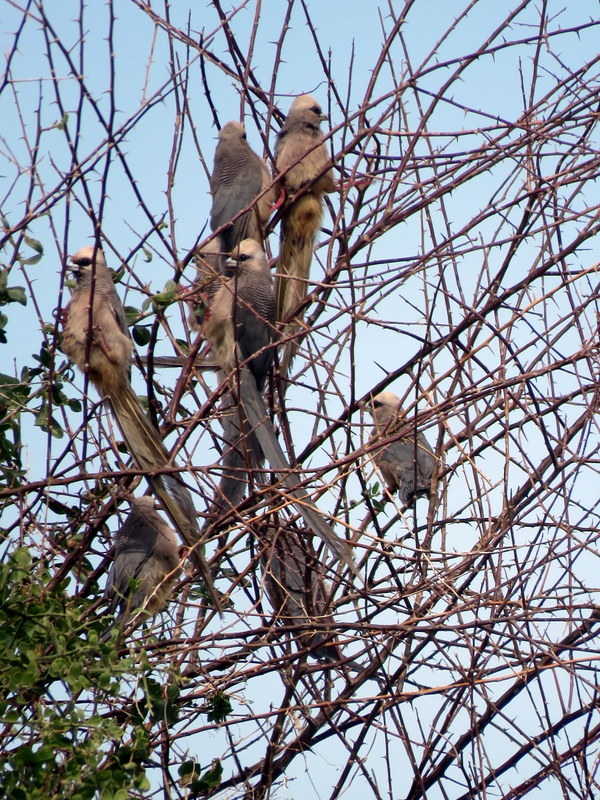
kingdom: Animalia
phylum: Chordata
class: Aves
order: Coliiformes
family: Coliidae
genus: Colius
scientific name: Colius leucocephalus
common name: White-headed mousebird
